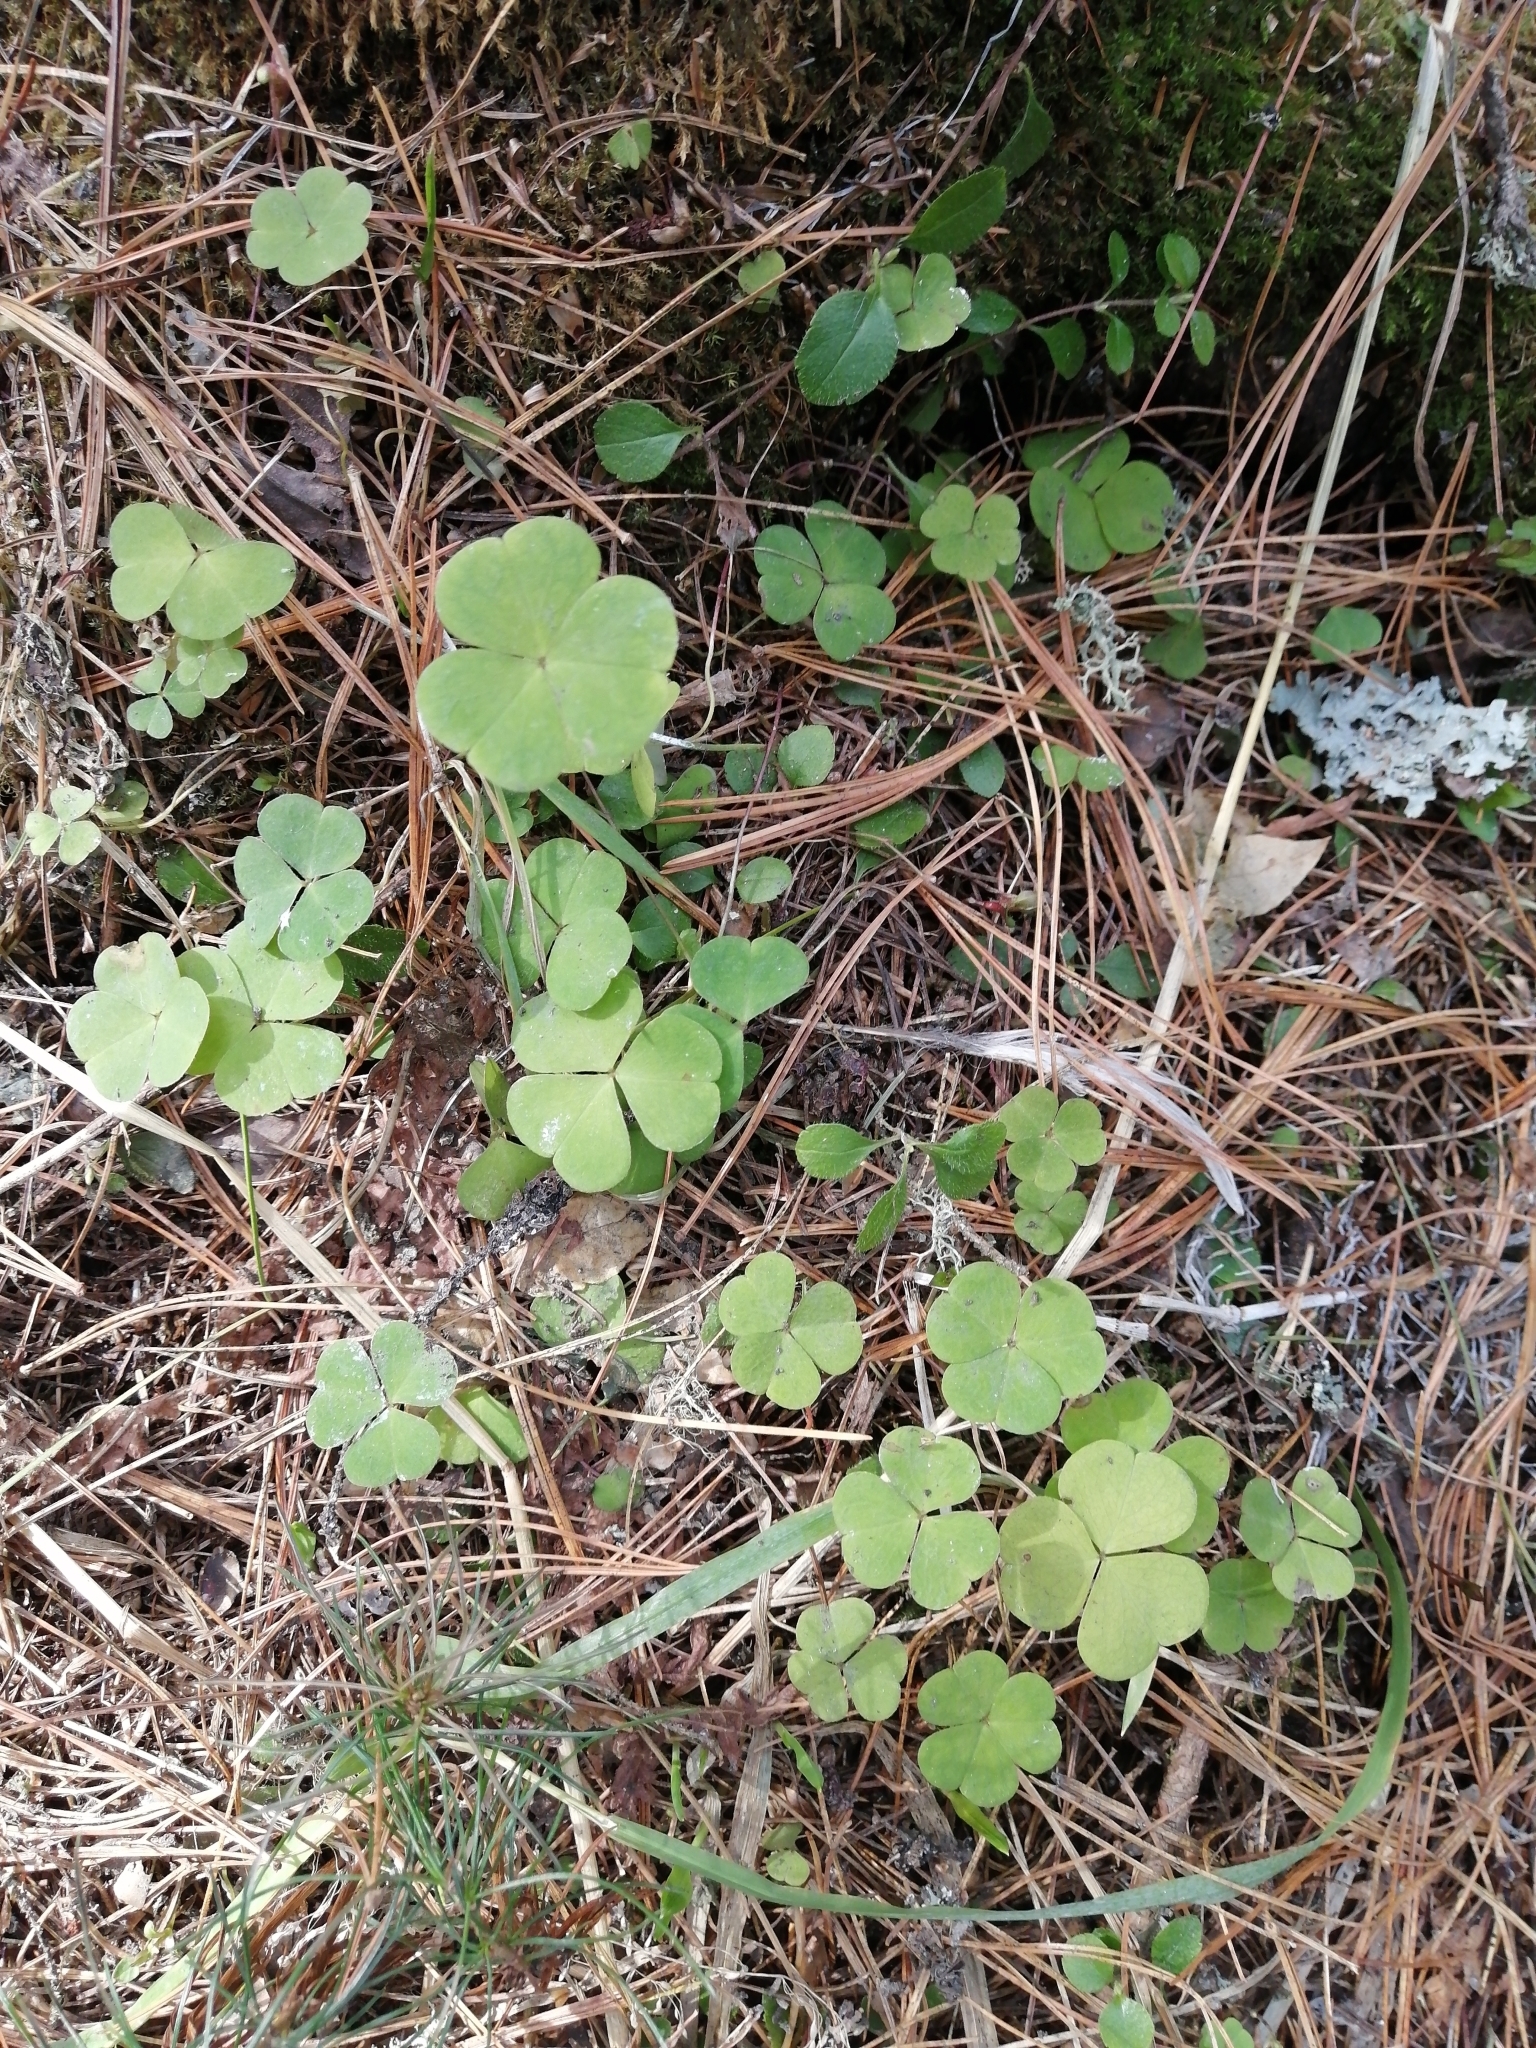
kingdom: Plantae
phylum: Tracheophyta
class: Magnoliopsida
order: Oxalidales
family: Oxalidaceae
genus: Oxalis
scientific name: Oxalis acetosella
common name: Wood-sorrel
